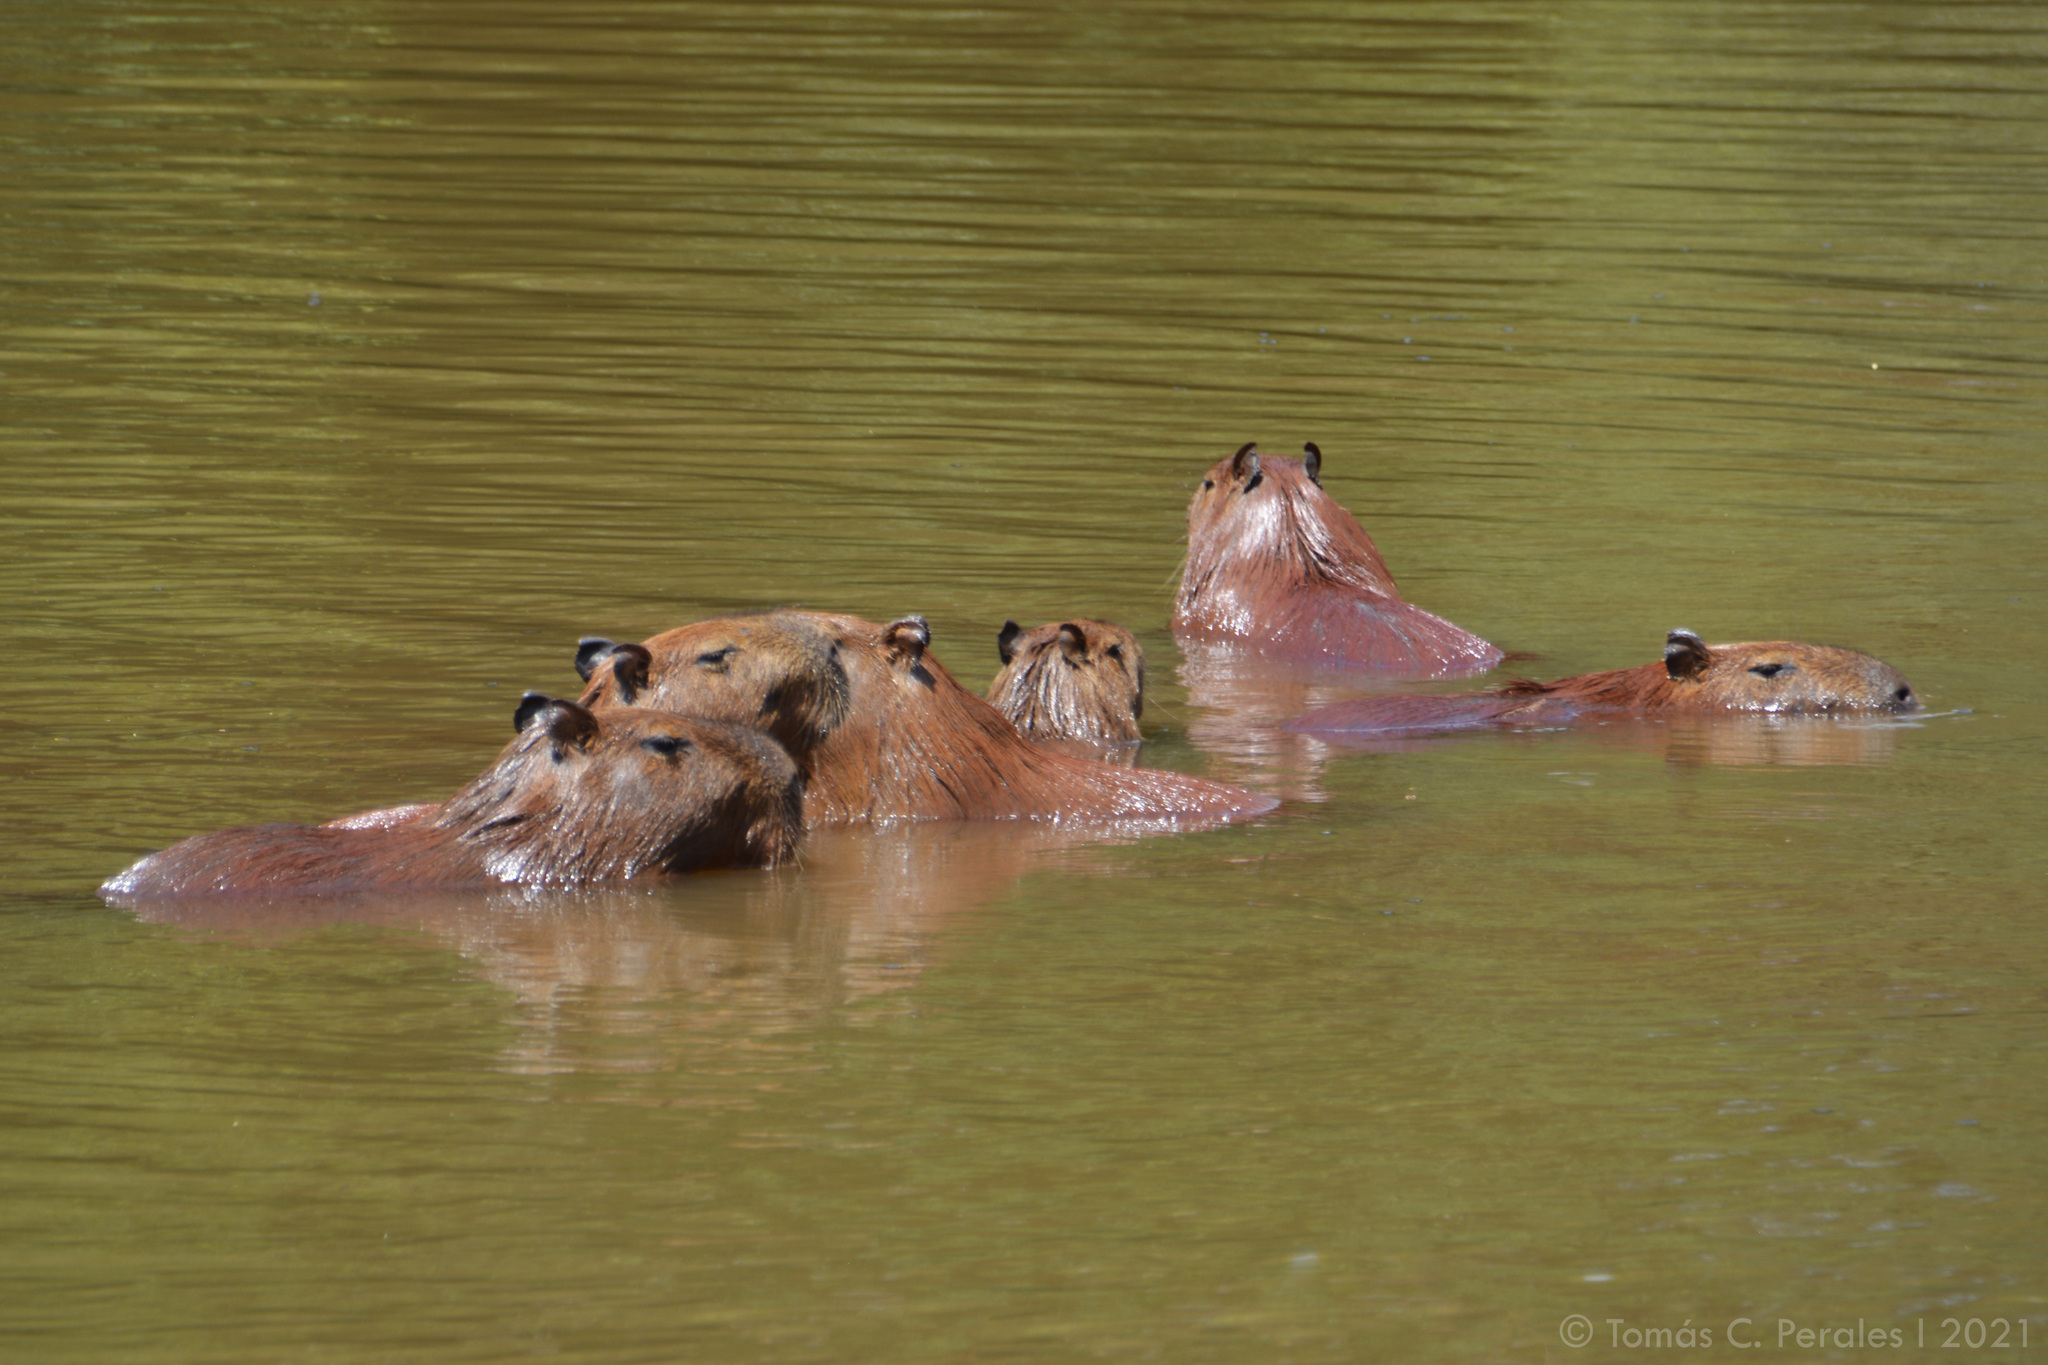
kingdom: Animalia
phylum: Chordata
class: Mammalia
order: Rodentia
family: Caviidae
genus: Hydrochoerus
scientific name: Hydrochoerus hydrochaeris
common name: Capybara
